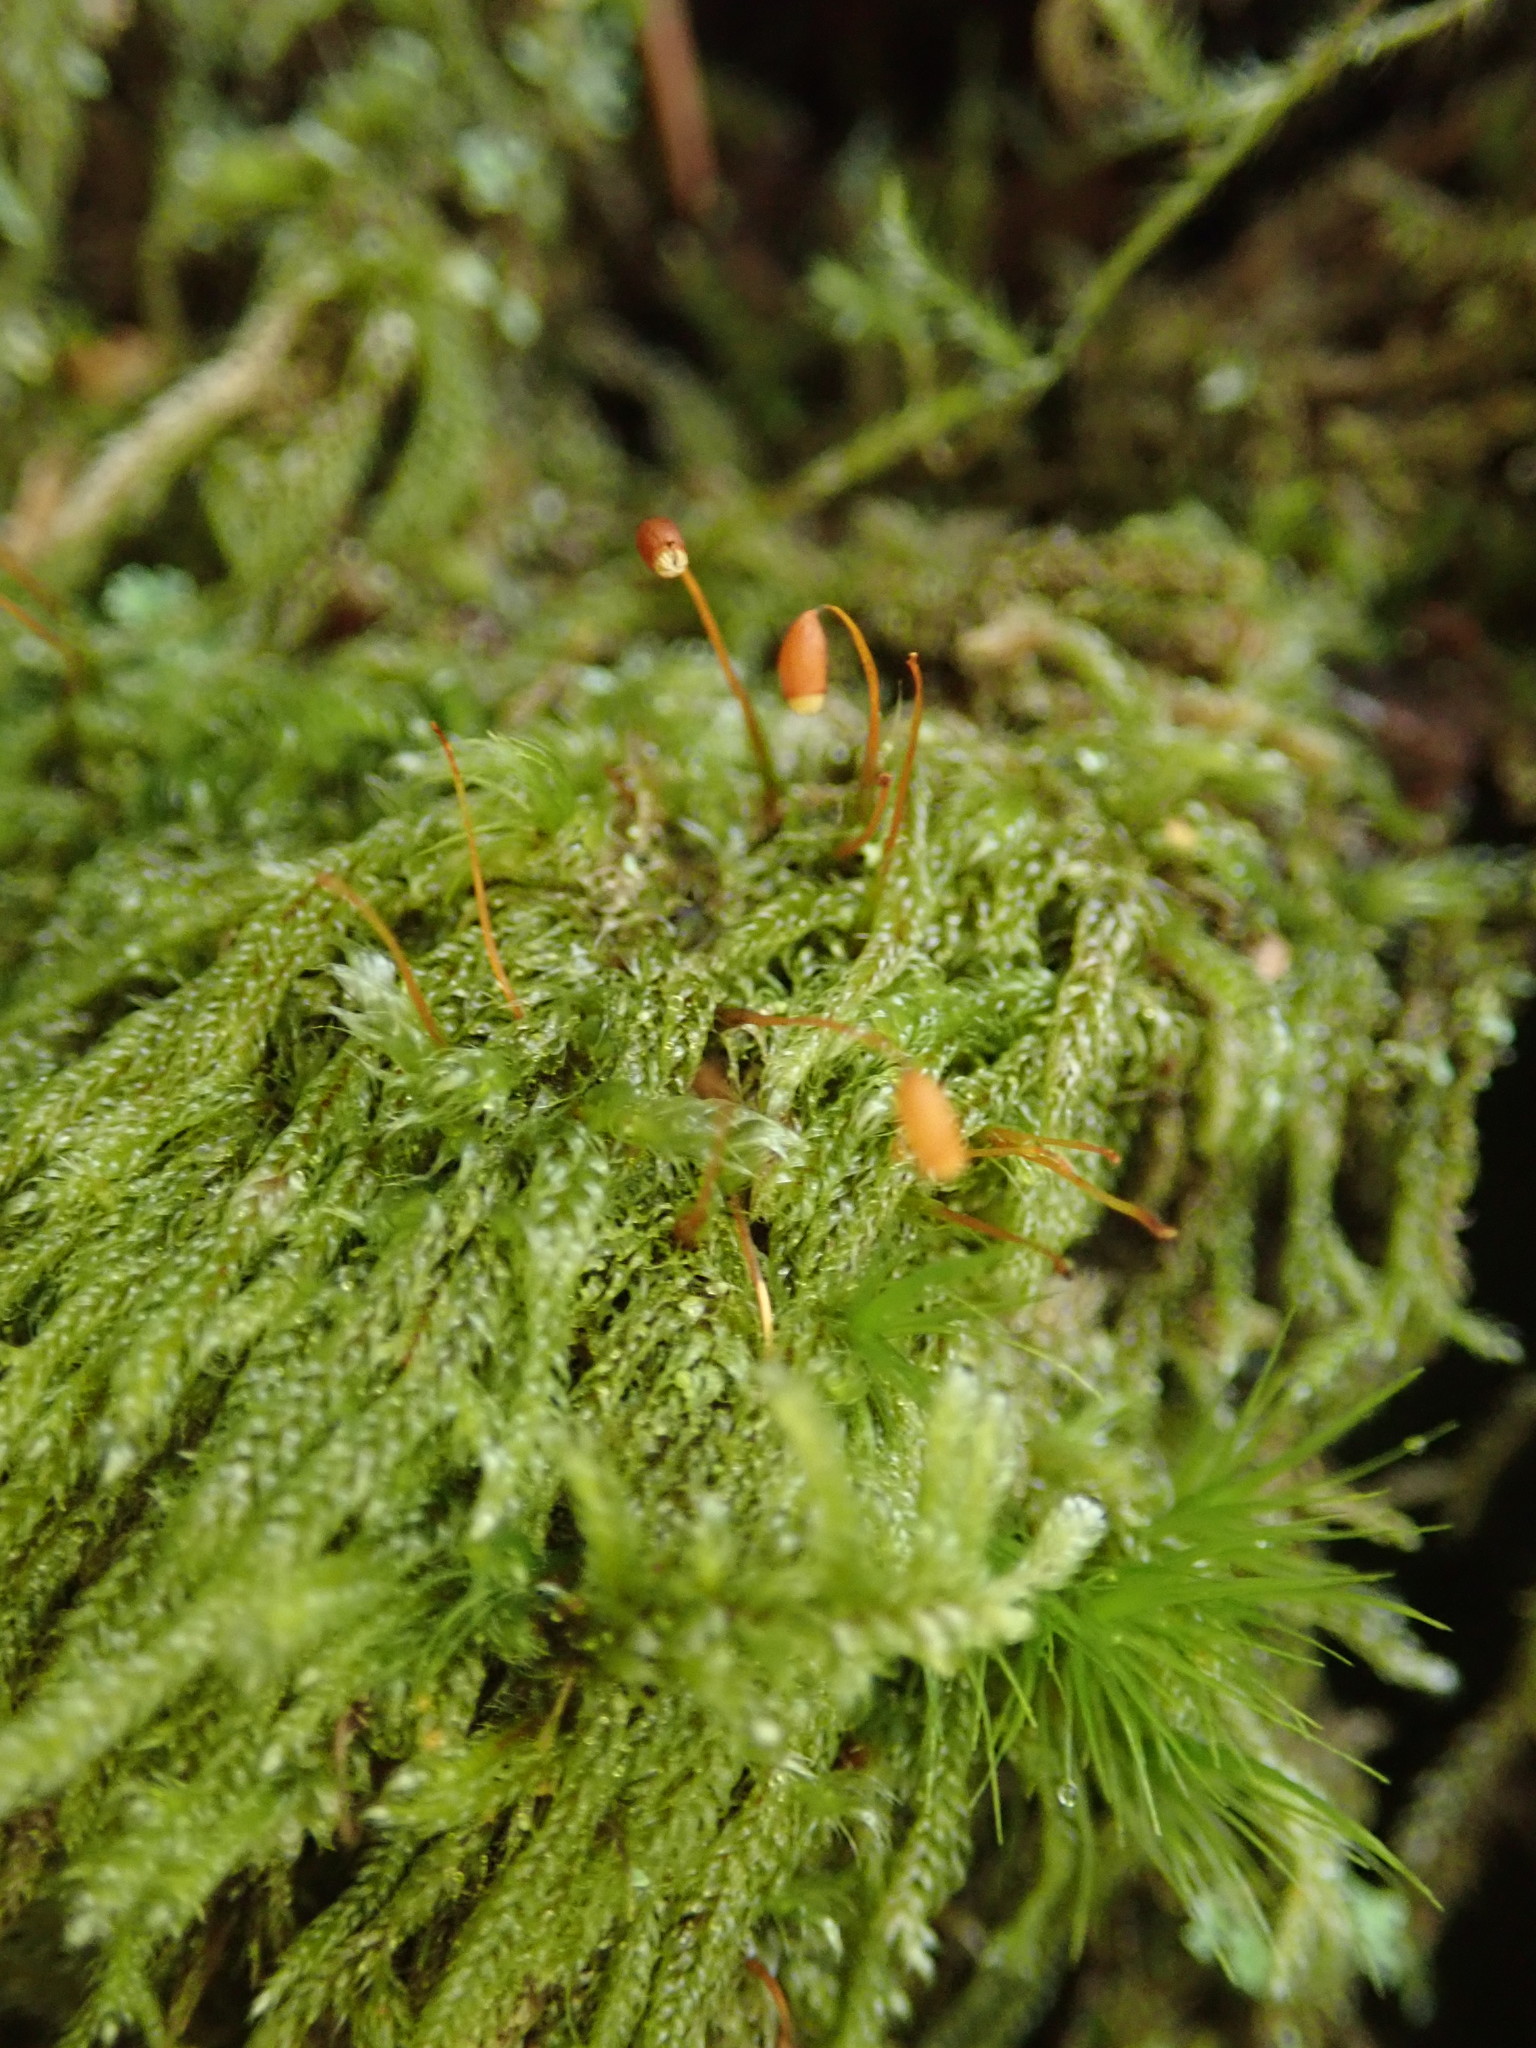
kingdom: Plantae
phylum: Bryophyta
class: Bryopsida
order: Hypnales
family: Pylaisiadelphaceae
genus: Trochophyllohypnum
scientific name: Trochophyllohypnum circinale
